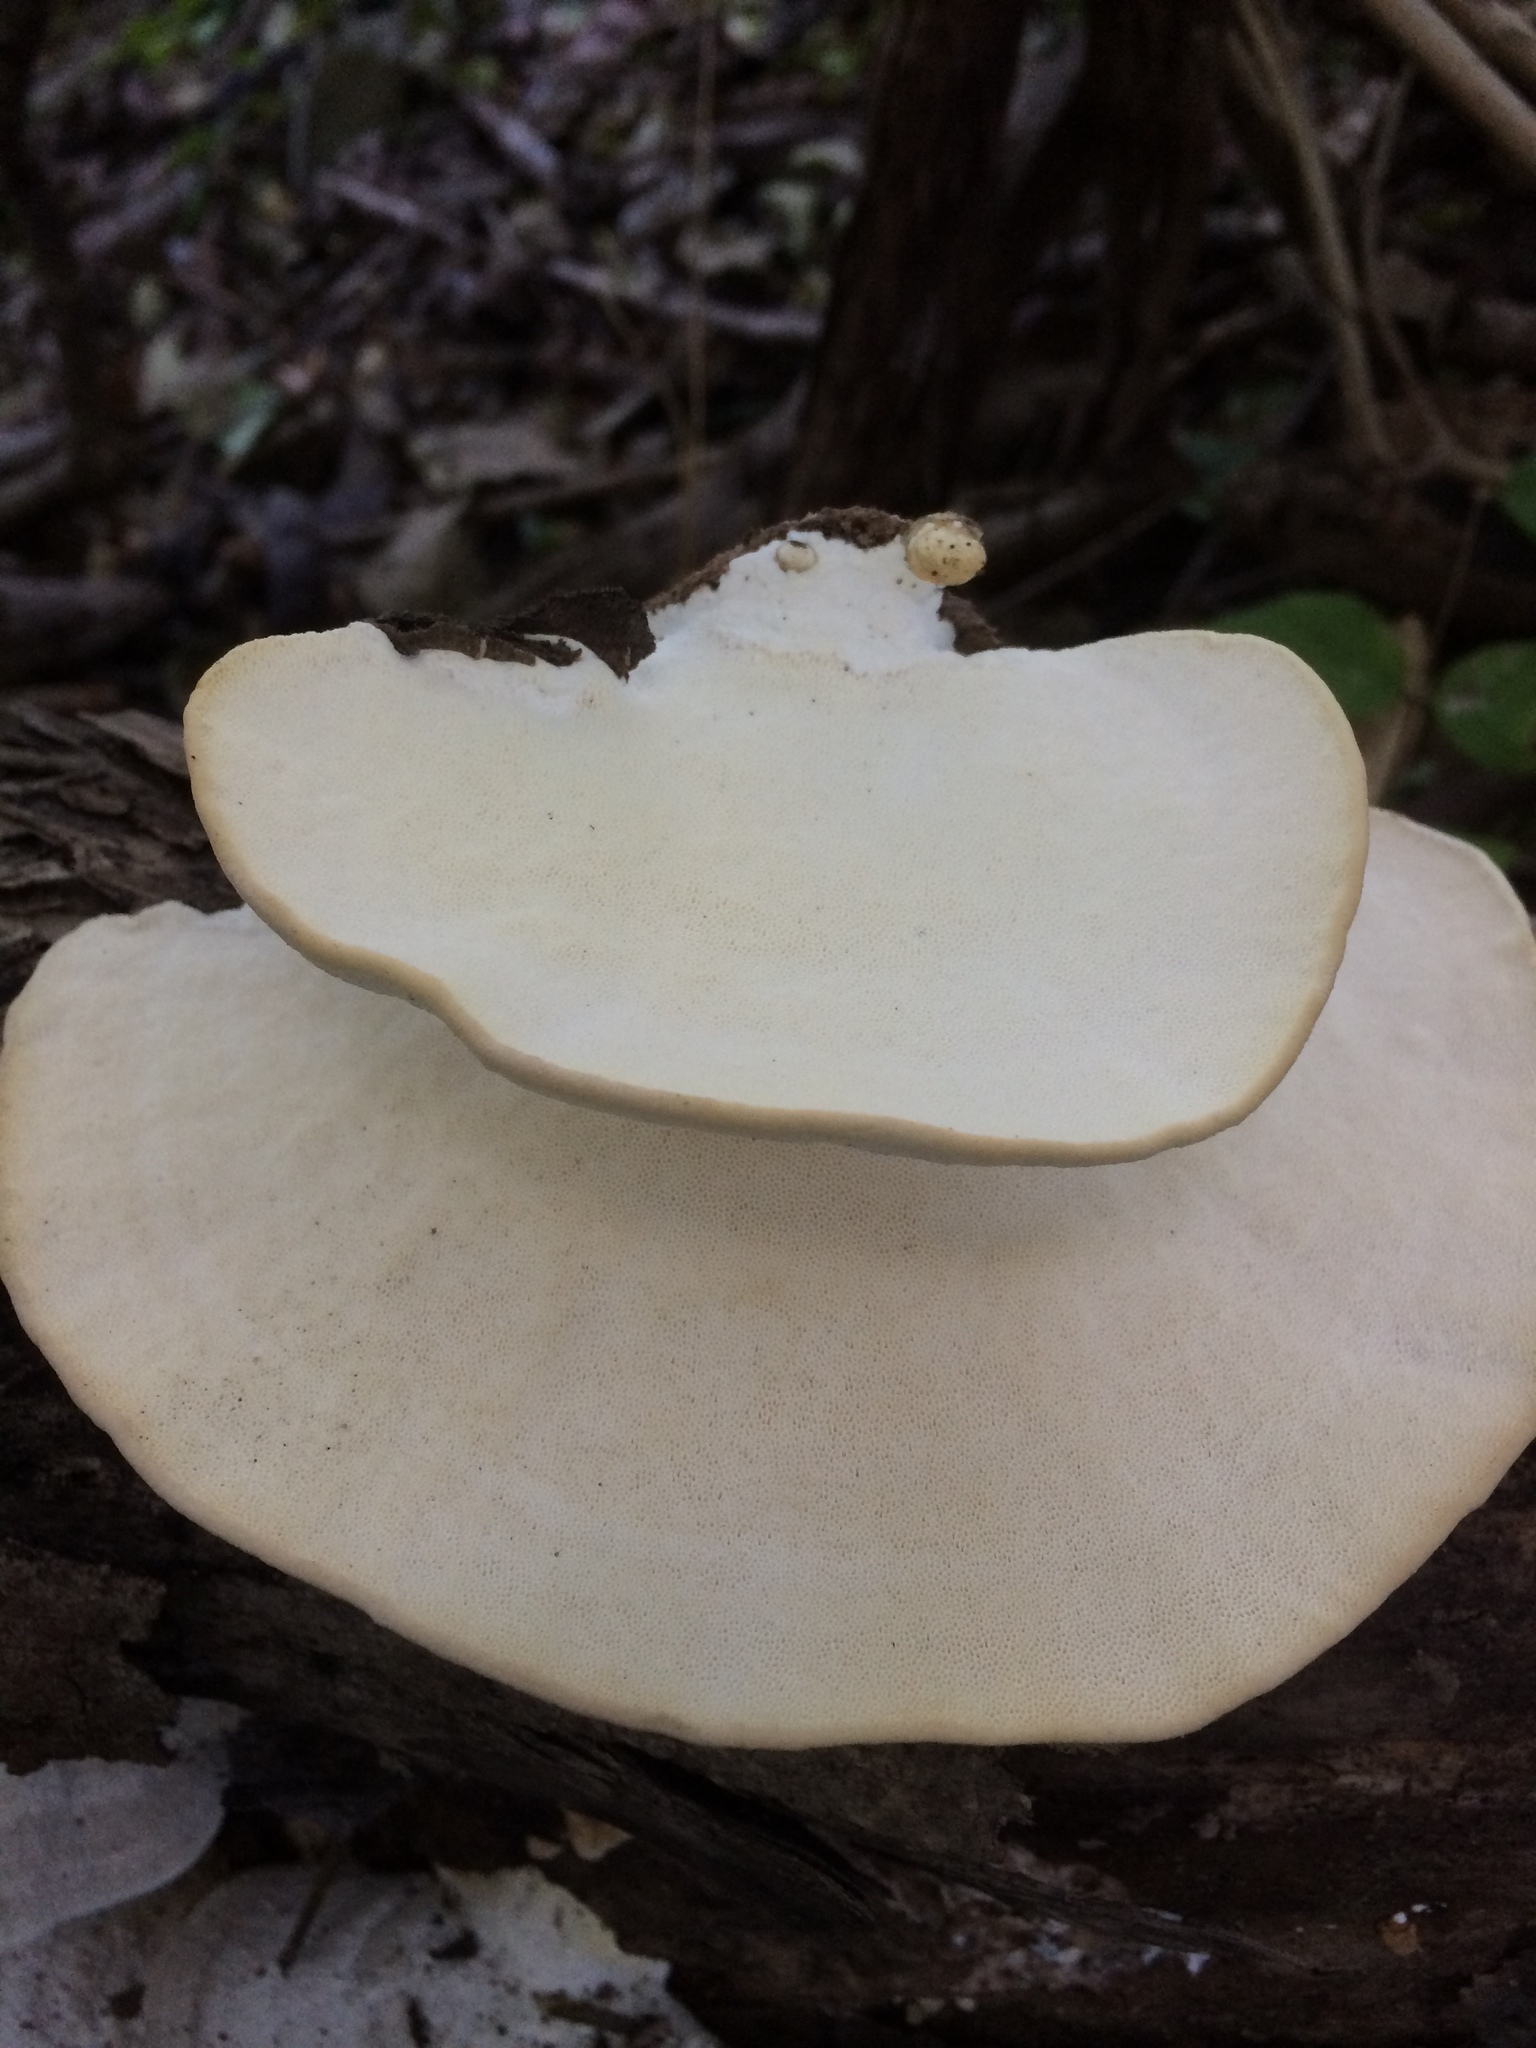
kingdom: Fungi
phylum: Basidiomycota
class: Agaricomycetes
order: Polyporales
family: Polyporaceae
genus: Trametes
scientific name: Trametes pubescens
